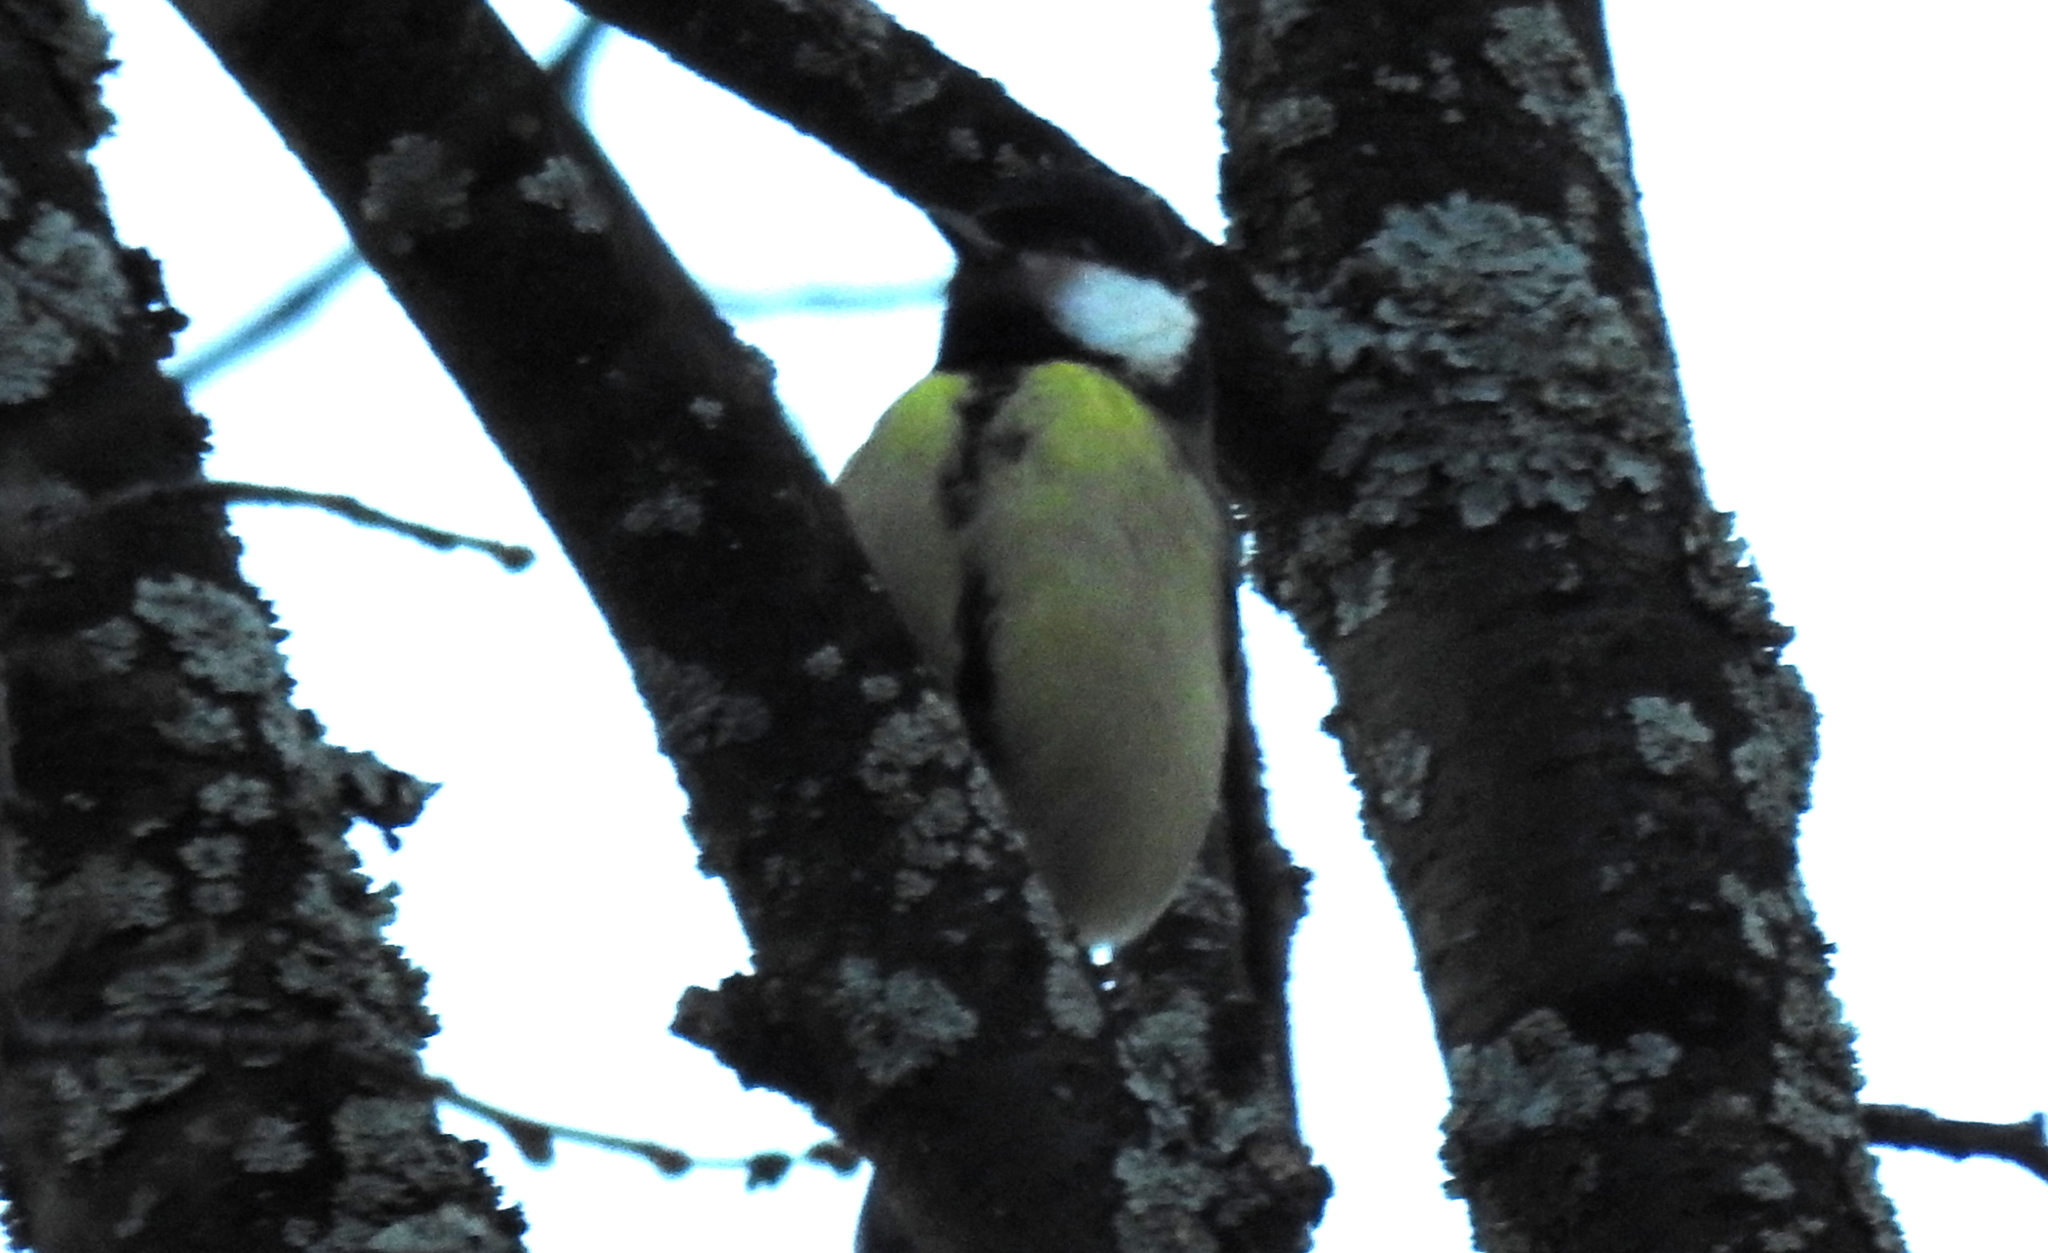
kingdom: Animalia
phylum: Chordata
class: Aves
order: Passeriformes
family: Paridae
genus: Parus
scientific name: Parus major
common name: Great tit
